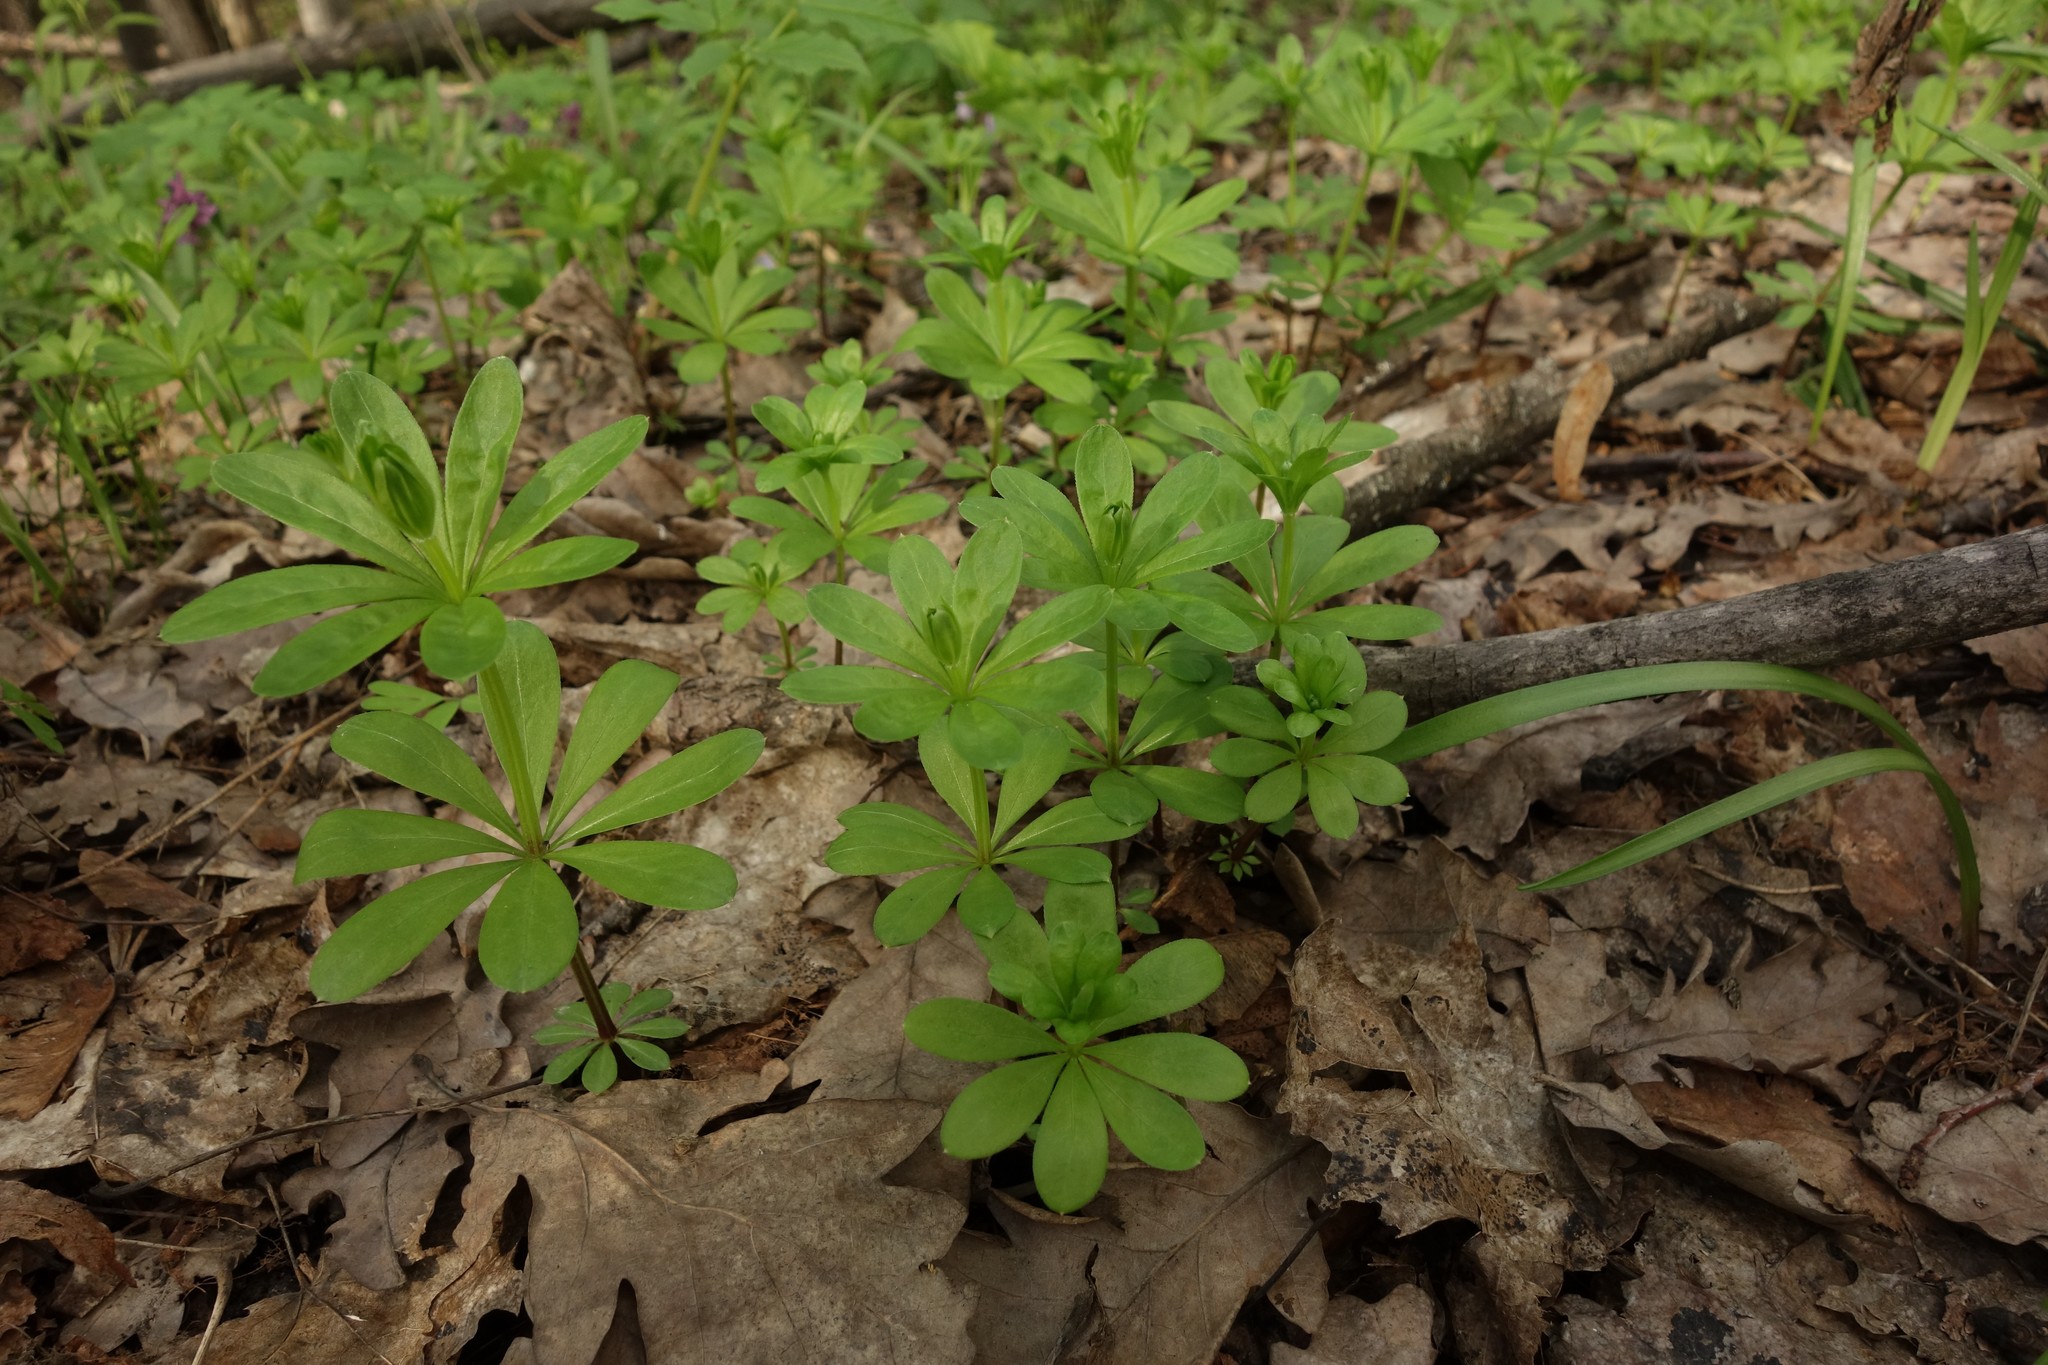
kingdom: Plantae
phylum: Tracheophyta
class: Magnoliopsida
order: Gentianales
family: Rubiaceae
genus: Galium
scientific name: Galium odoratum
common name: Sweet woodruff
